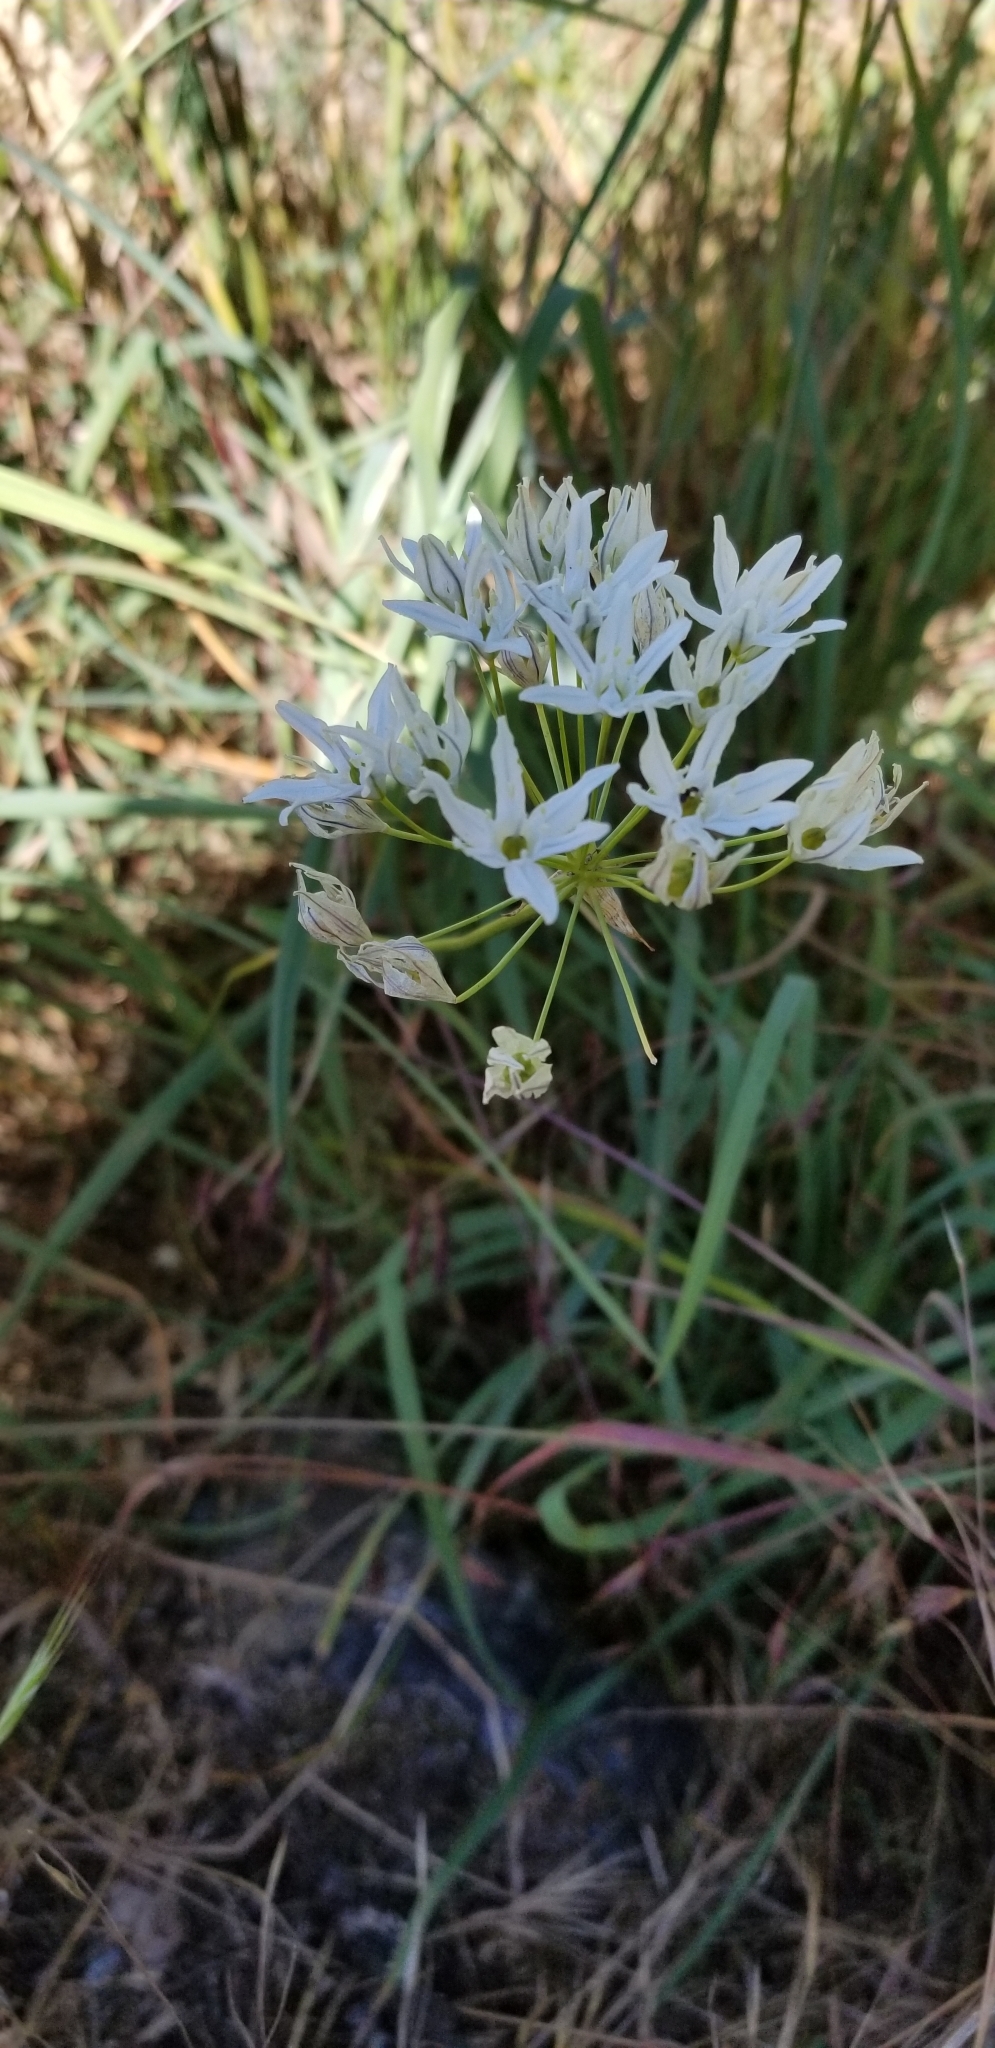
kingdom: Plantae
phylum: Tracheophyta
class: Liliopsida
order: Asparagales
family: Asparagaceae
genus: Triteleia
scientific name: Triteleia hyacinthina
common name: White brodiaea
